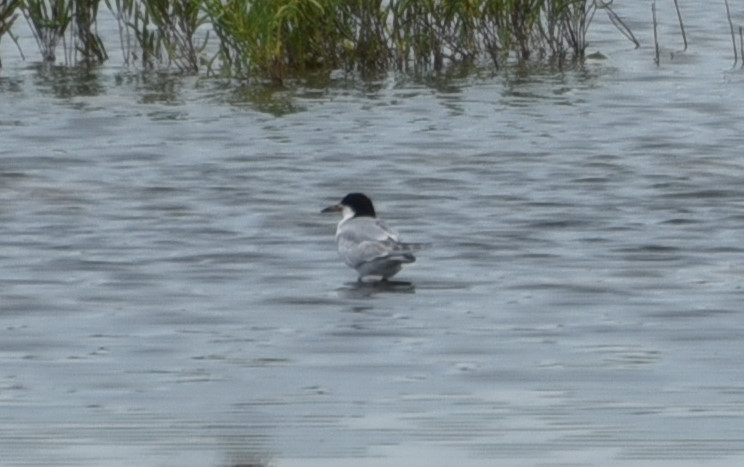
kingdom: Animalia
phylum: Chordata
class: Aves
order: Charadriiformes
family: Laridae
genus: Sterna
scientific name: Sterna forsteri
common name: Forster's tern
